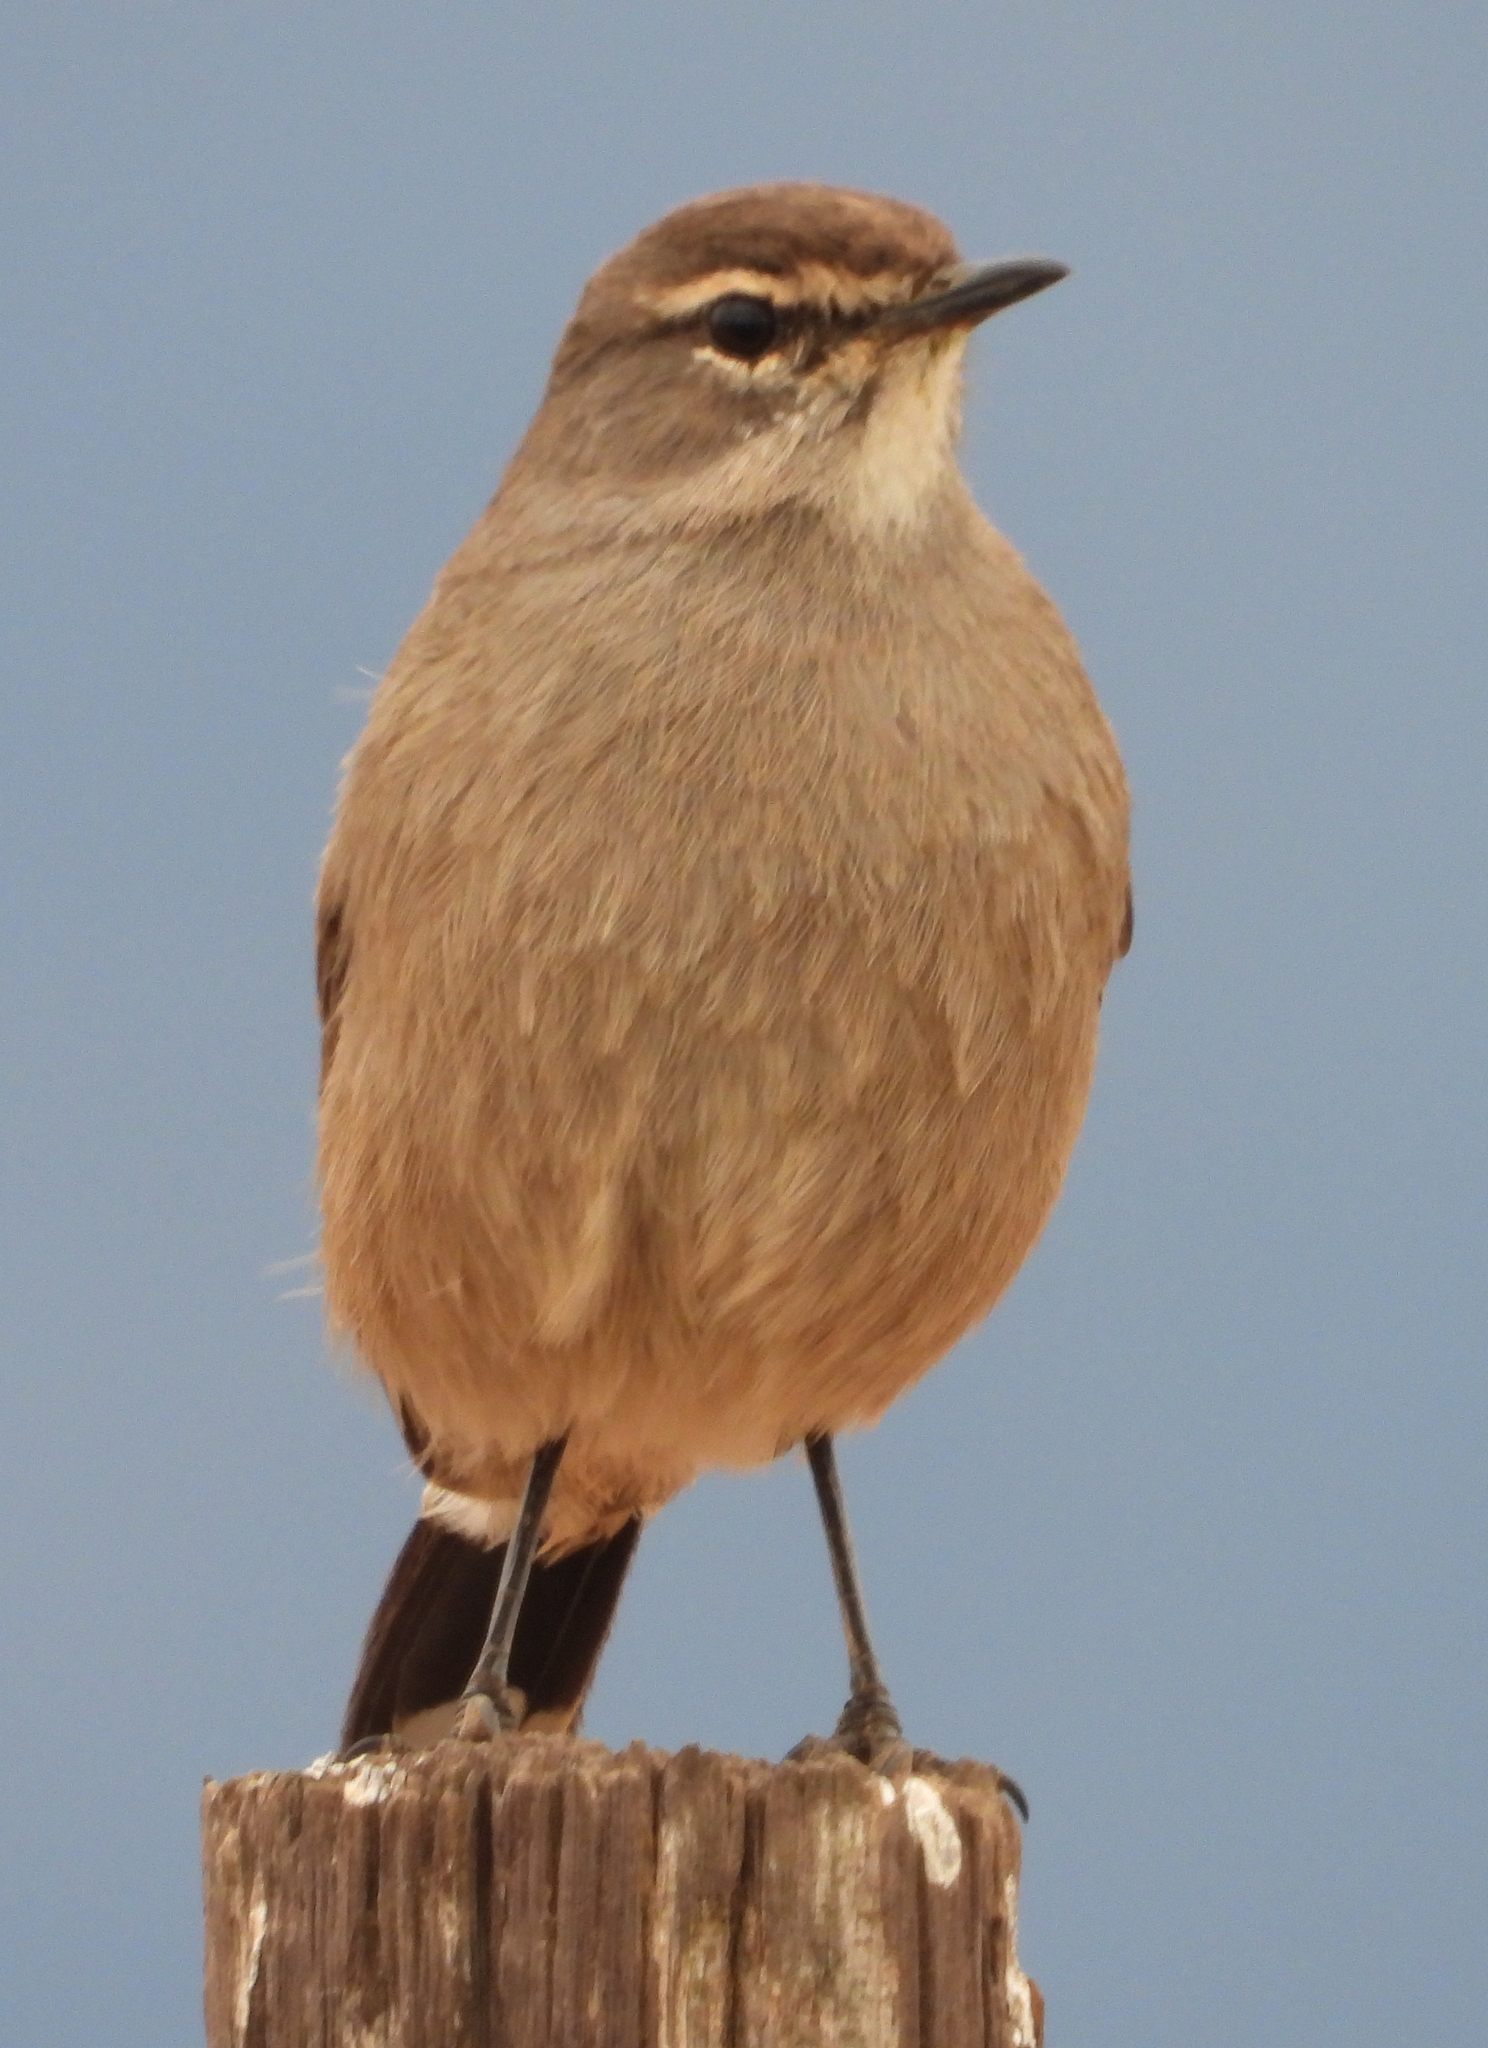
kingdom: Animalia
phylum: Chordata
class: Aves
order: Passeriformes
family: Muscicapidae
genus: Erythropygia
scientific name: Erythropygia coryphoeus
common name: Karoo scrub robin
